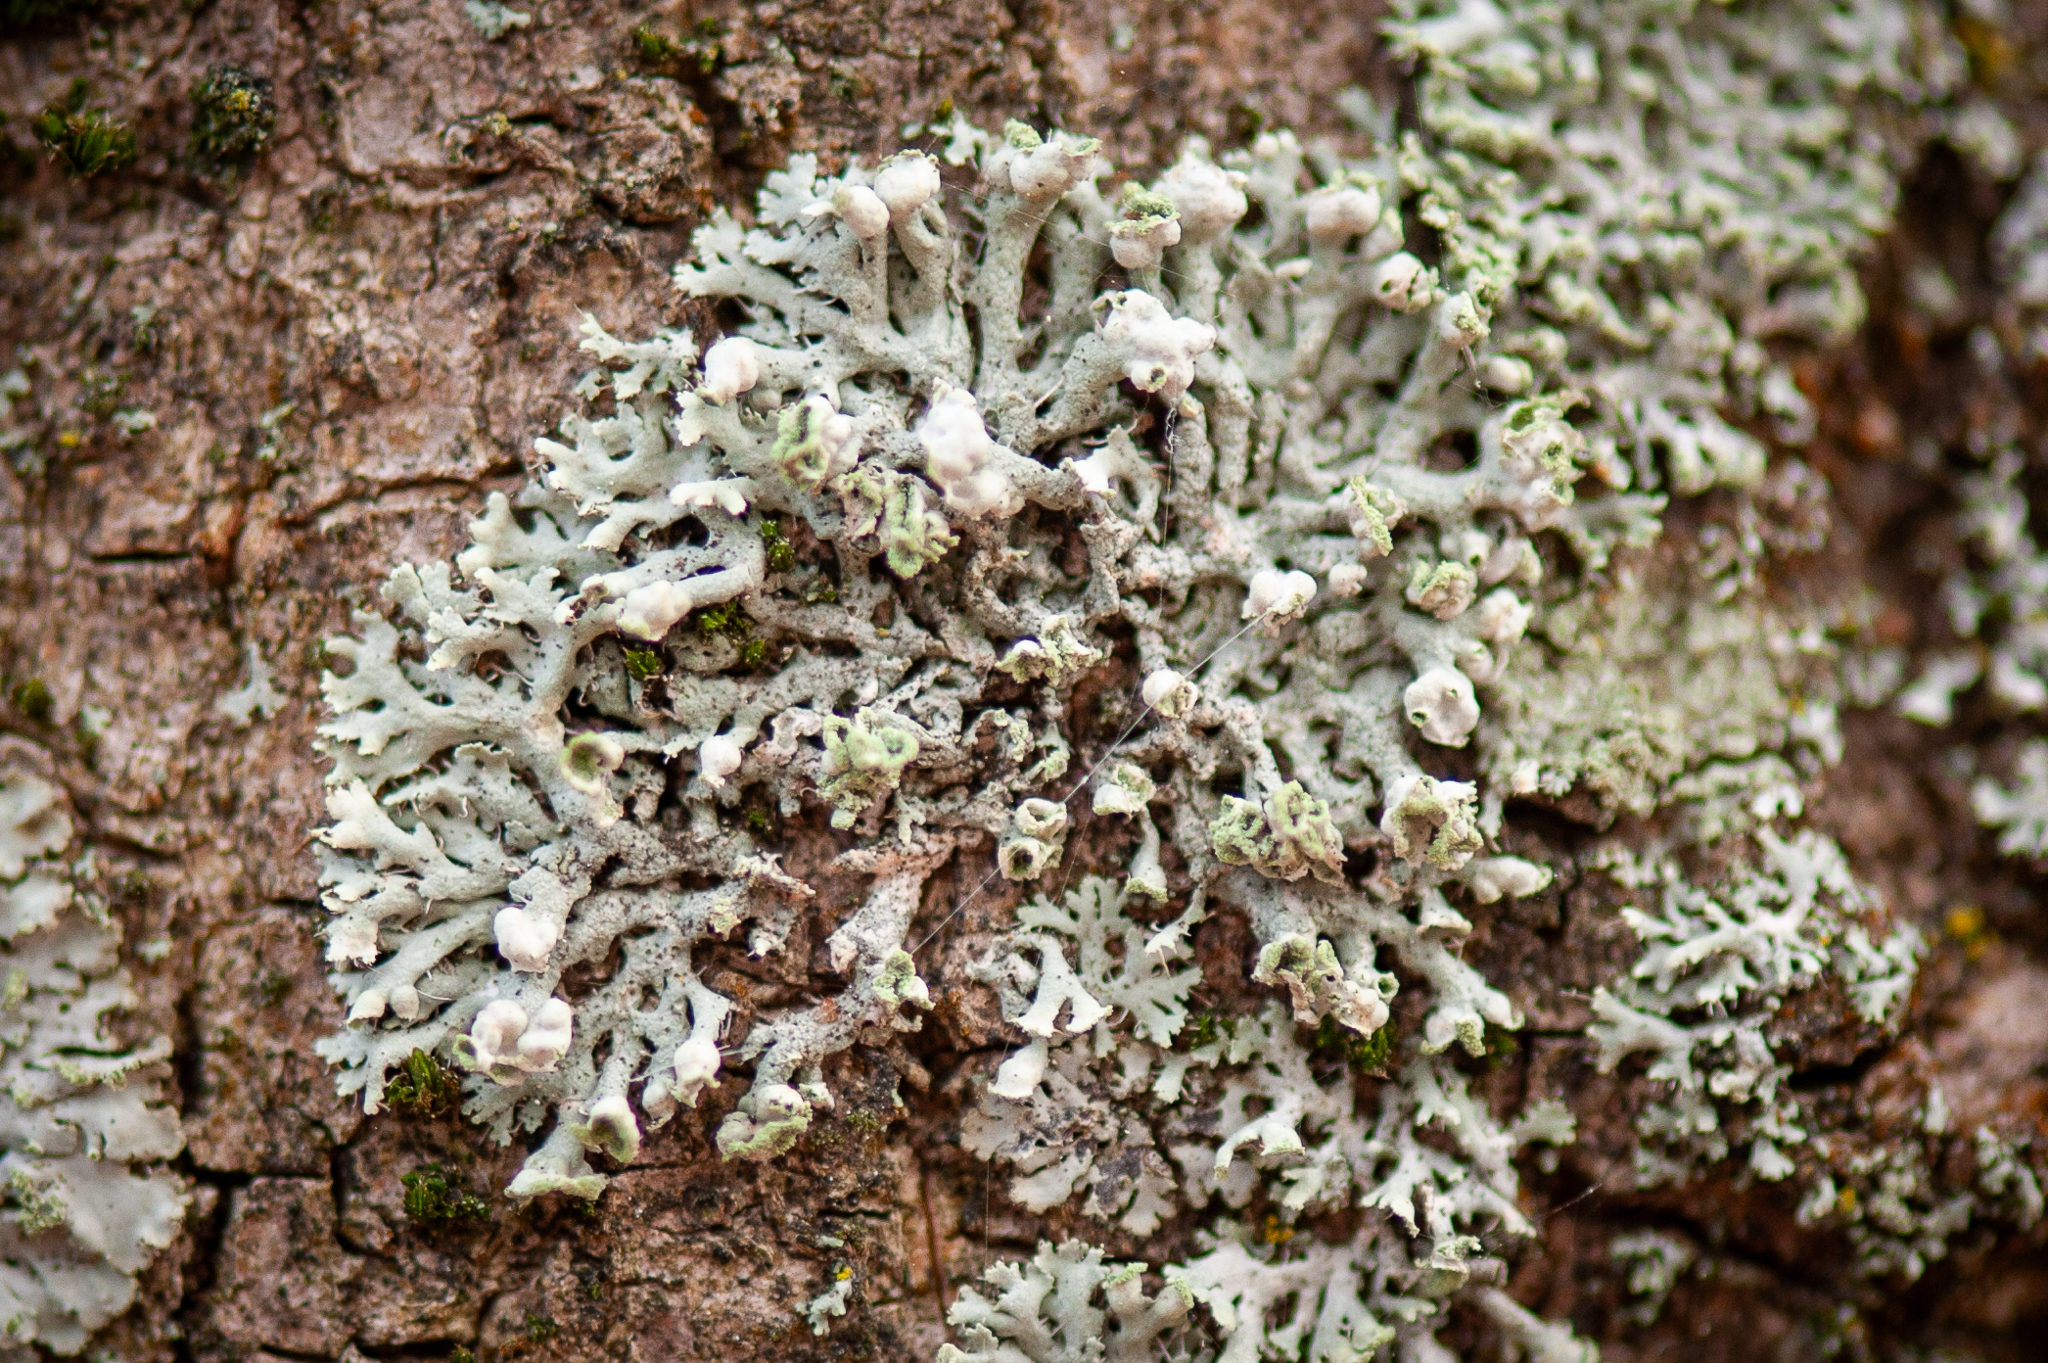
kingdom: Fungi
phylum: Ascomycota
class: Lecanoromycetes
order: Caliciales
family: Physciaceae
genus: Physcia
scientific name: Physcia adscendens
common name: Hooded rosette lichen
